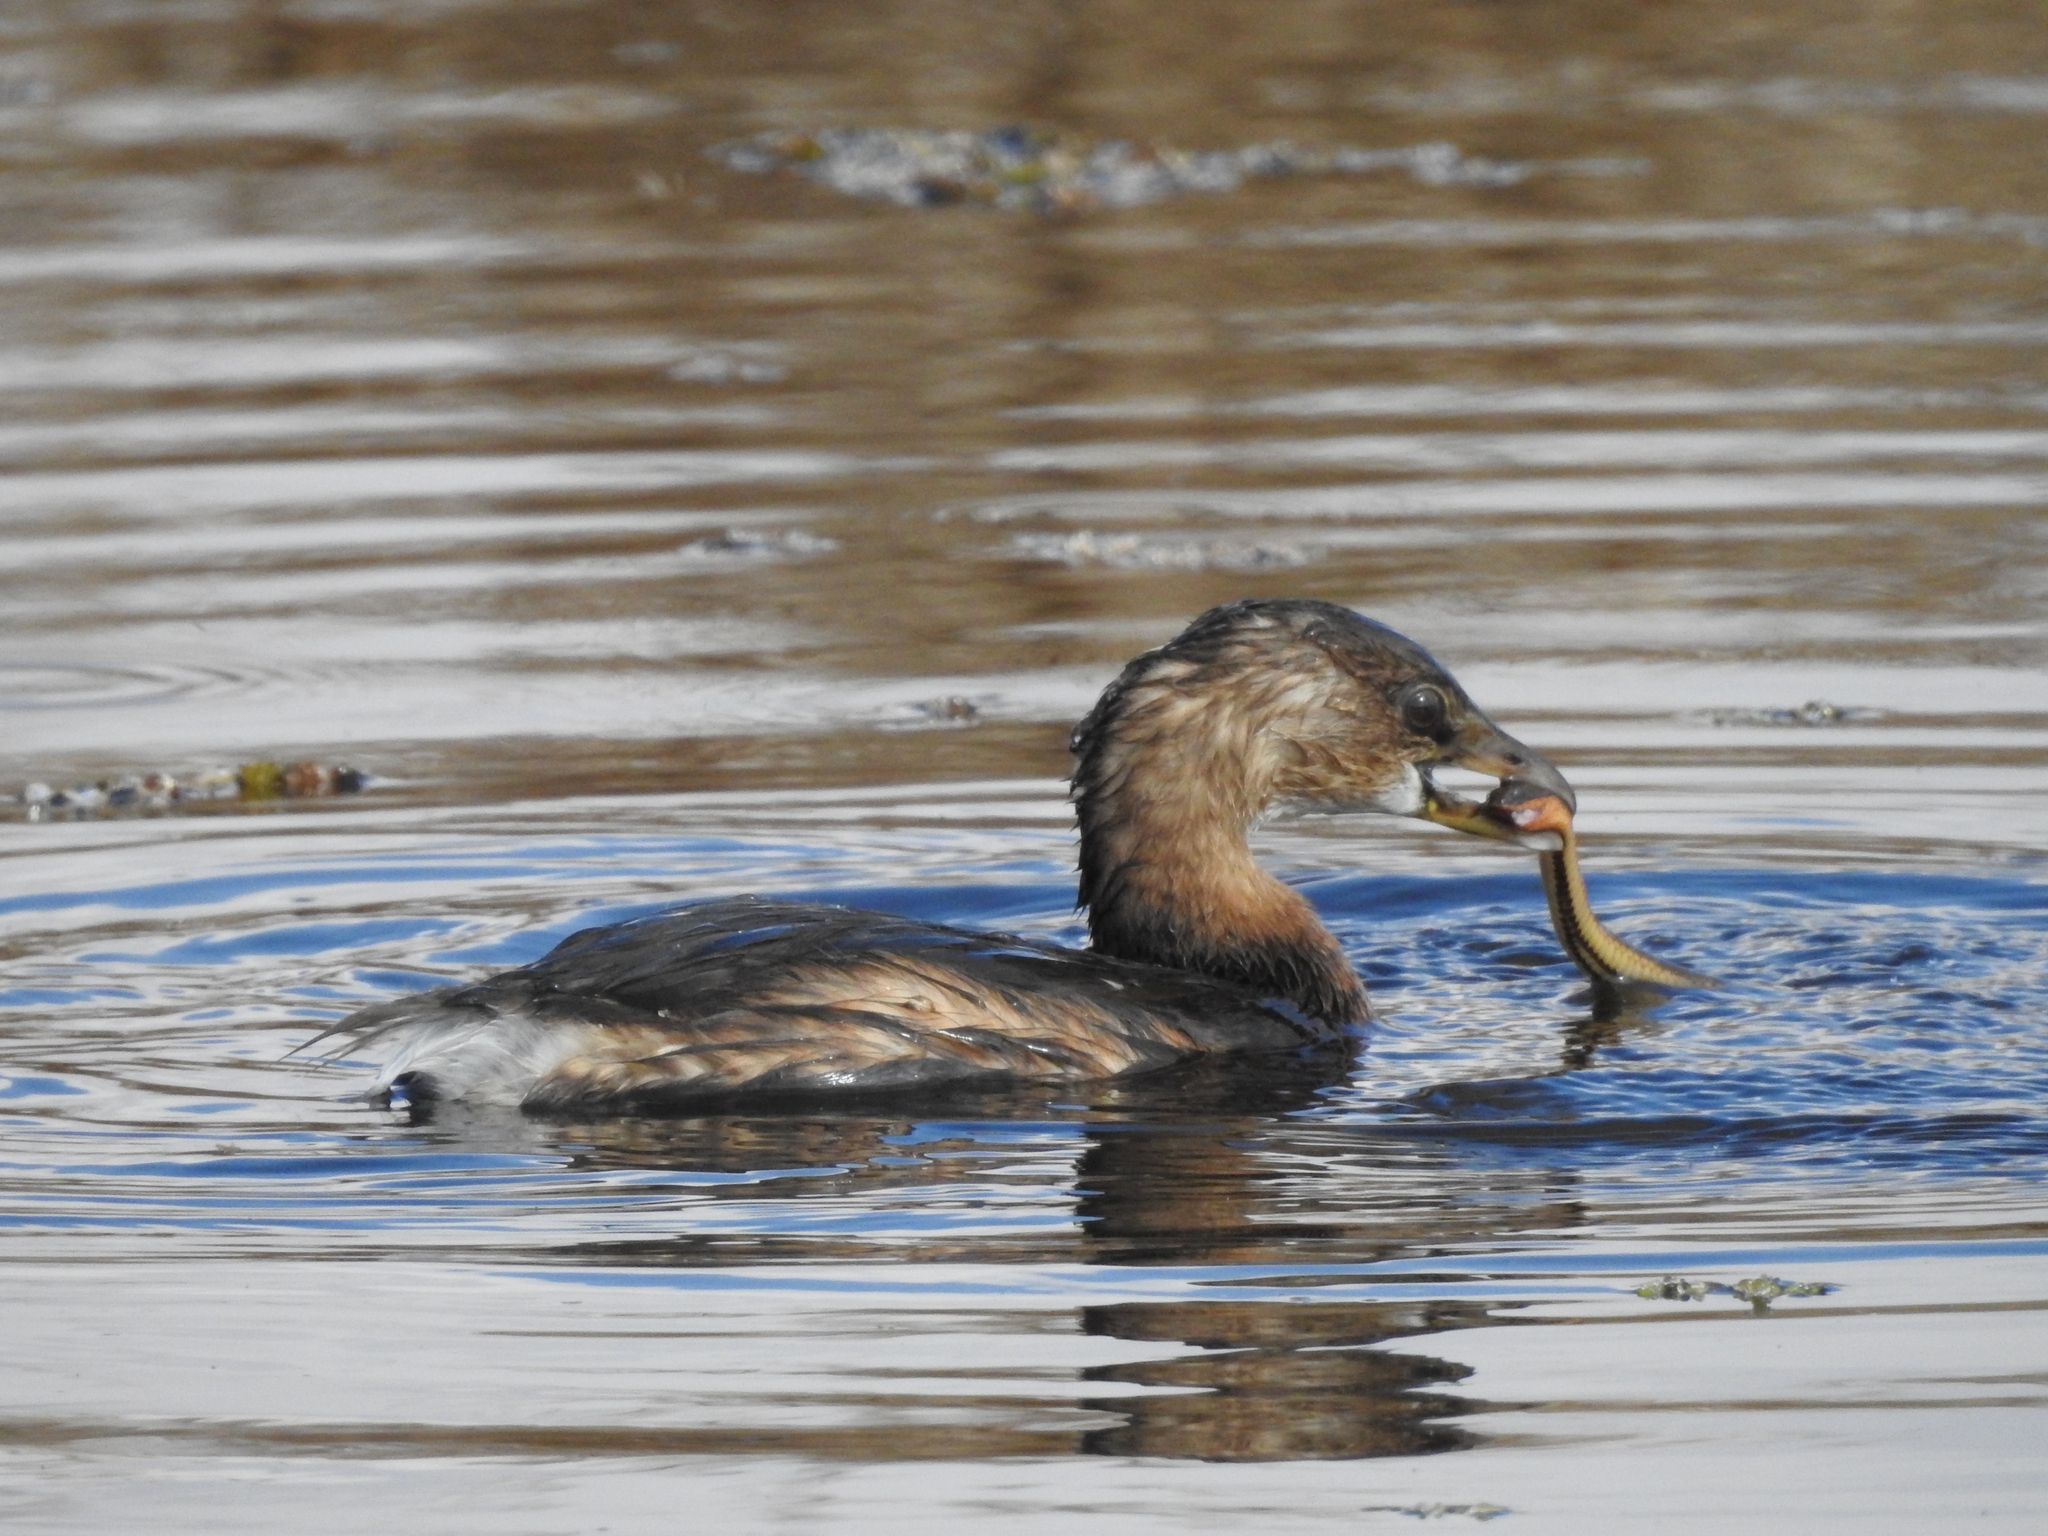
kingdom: Animalia
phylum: Chordata
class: Squamata
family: Colubridae
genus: Liodytes
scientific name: Liodytes rigida
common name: Crayfish snake
